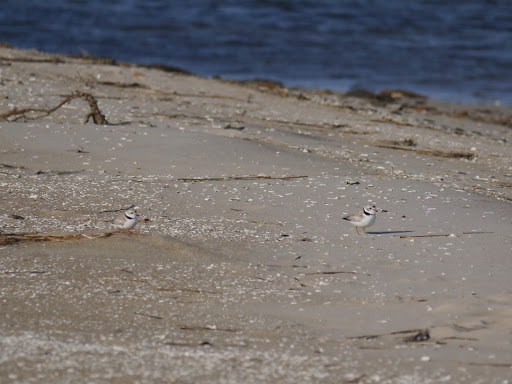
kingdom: Animalia
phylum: Chordata
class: Aves
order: Charadriiformes
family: Charadriidae
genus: Charadrius
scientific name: Charadrius melodus
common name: Piping plover
